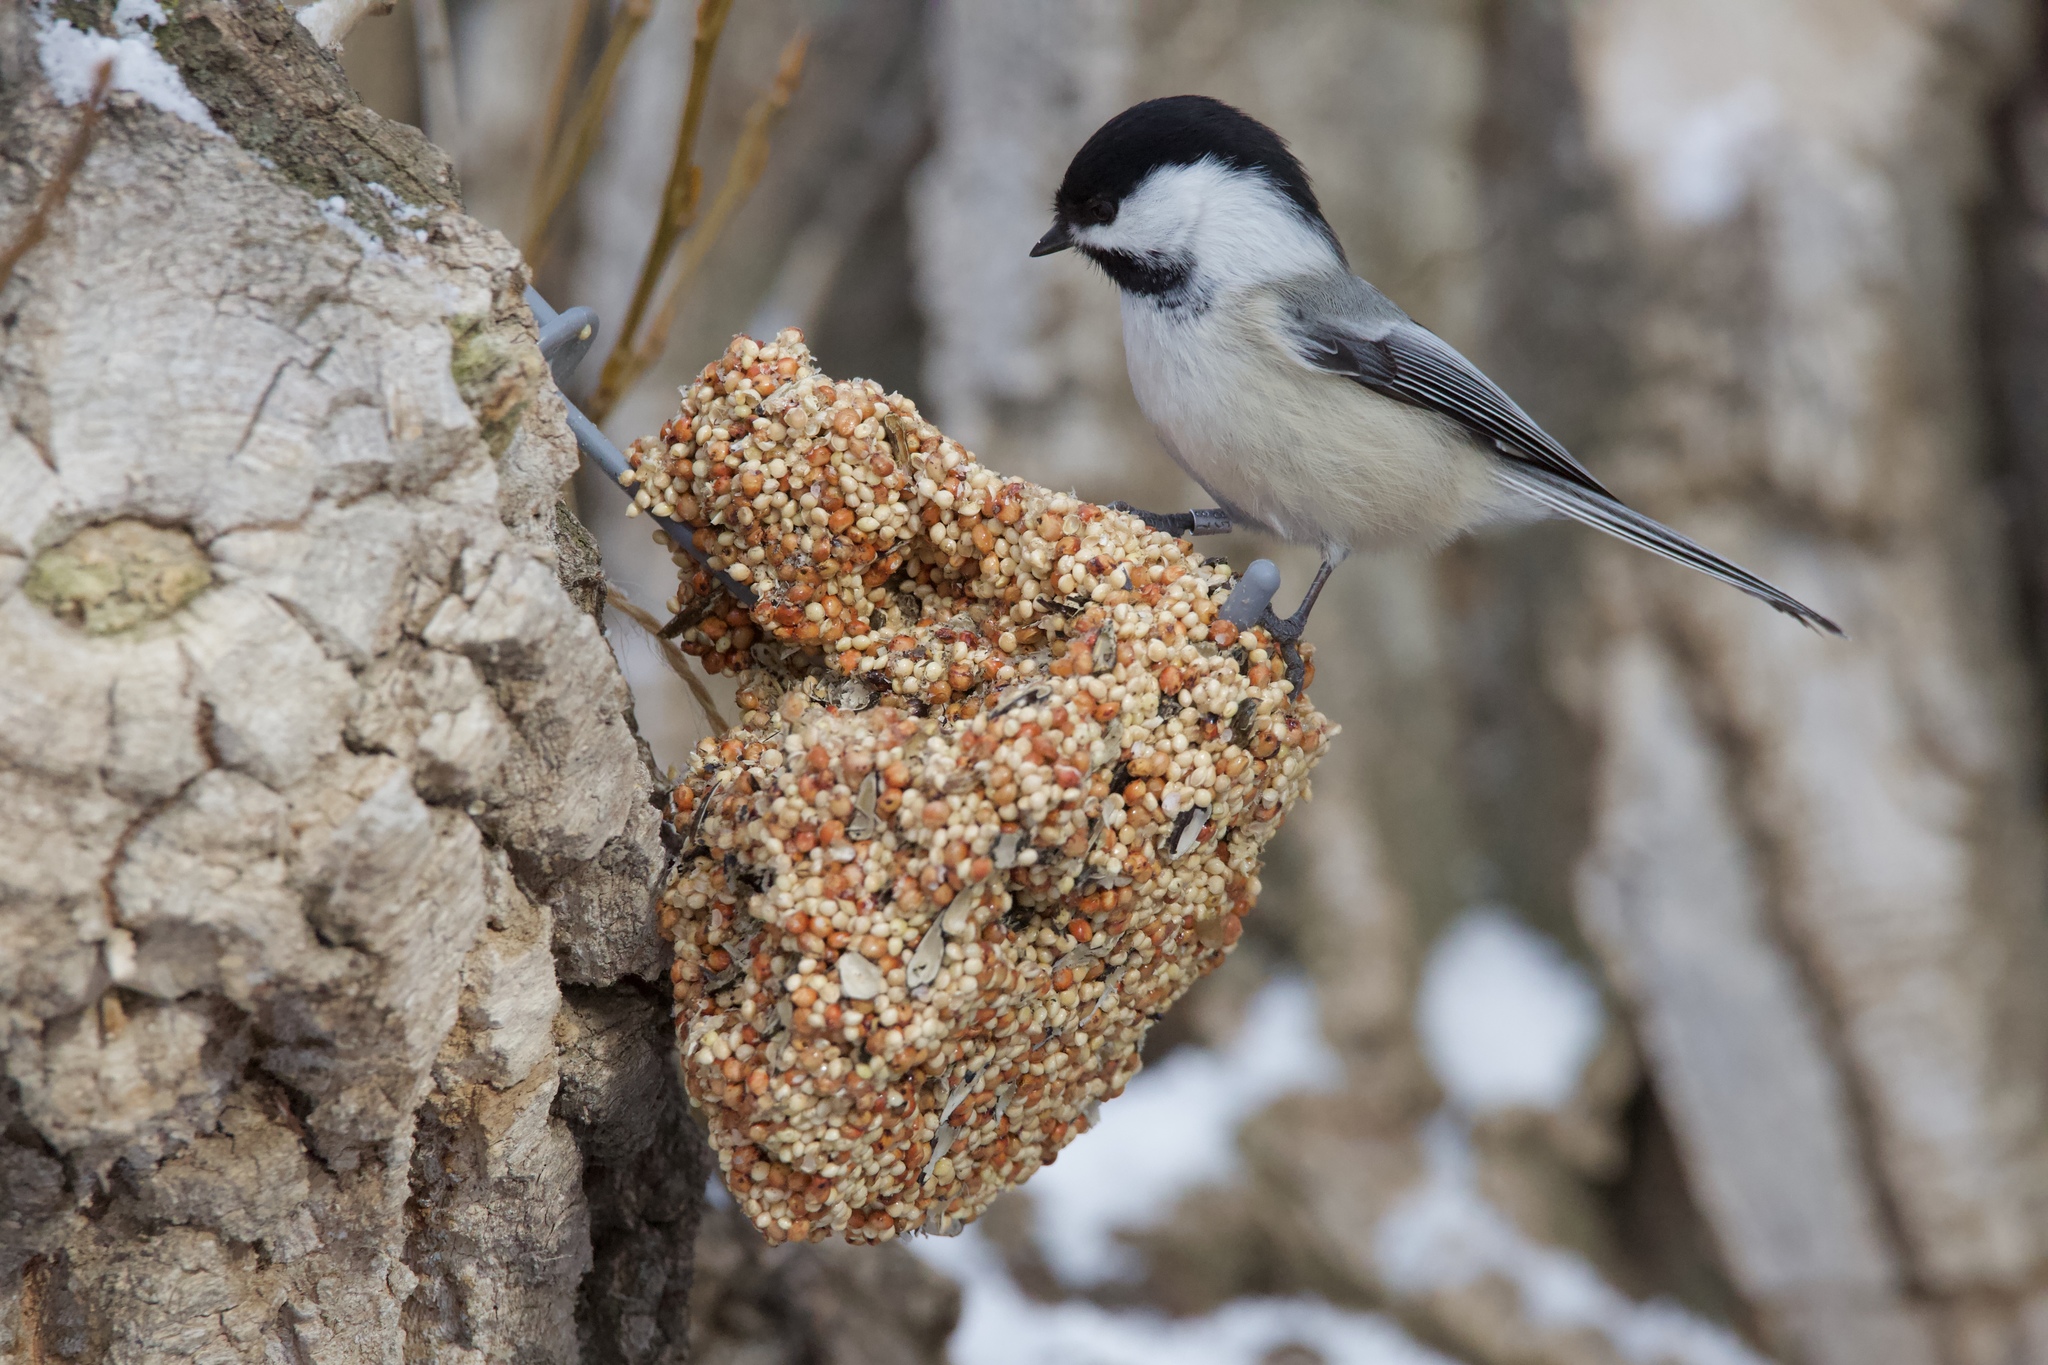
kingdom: Animalia
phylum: Chordata
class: Aves
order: Passeriformes
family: Paridae
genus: Poecile
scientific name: Poecile atricapillus
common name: Black-capped chickadee
